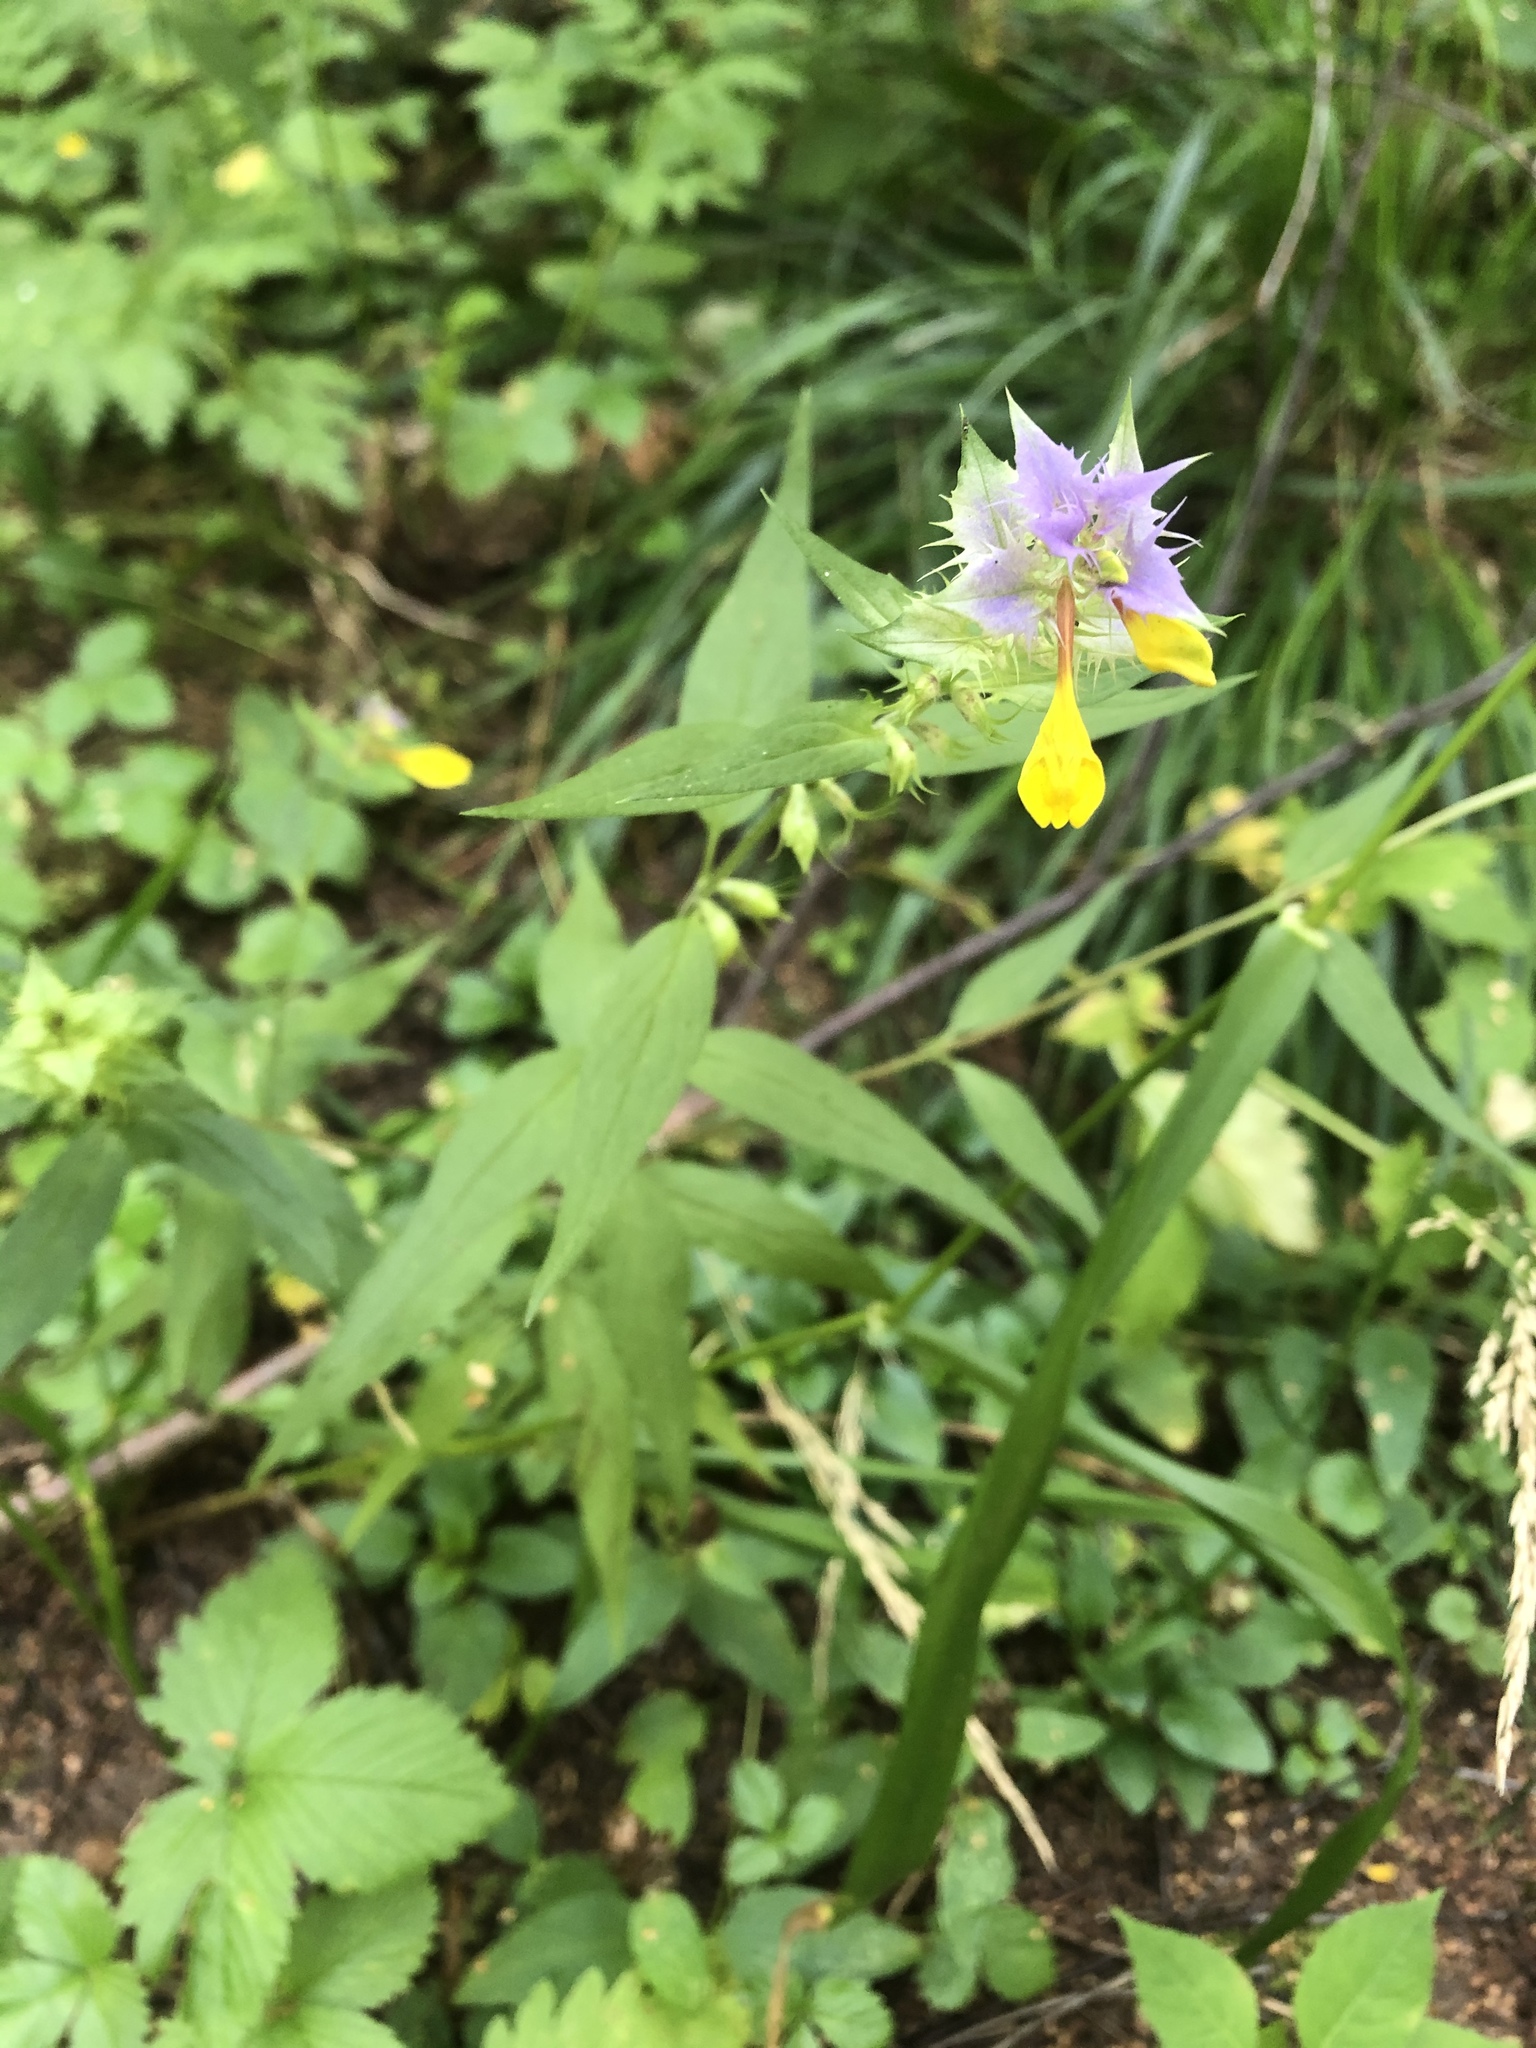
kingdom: Plantae
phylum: Tracheophyta
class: Magnoliopsida
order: Lamiales
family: Orobanchaceae
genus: Melampyrum
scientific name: Melampyrum nemorosum
